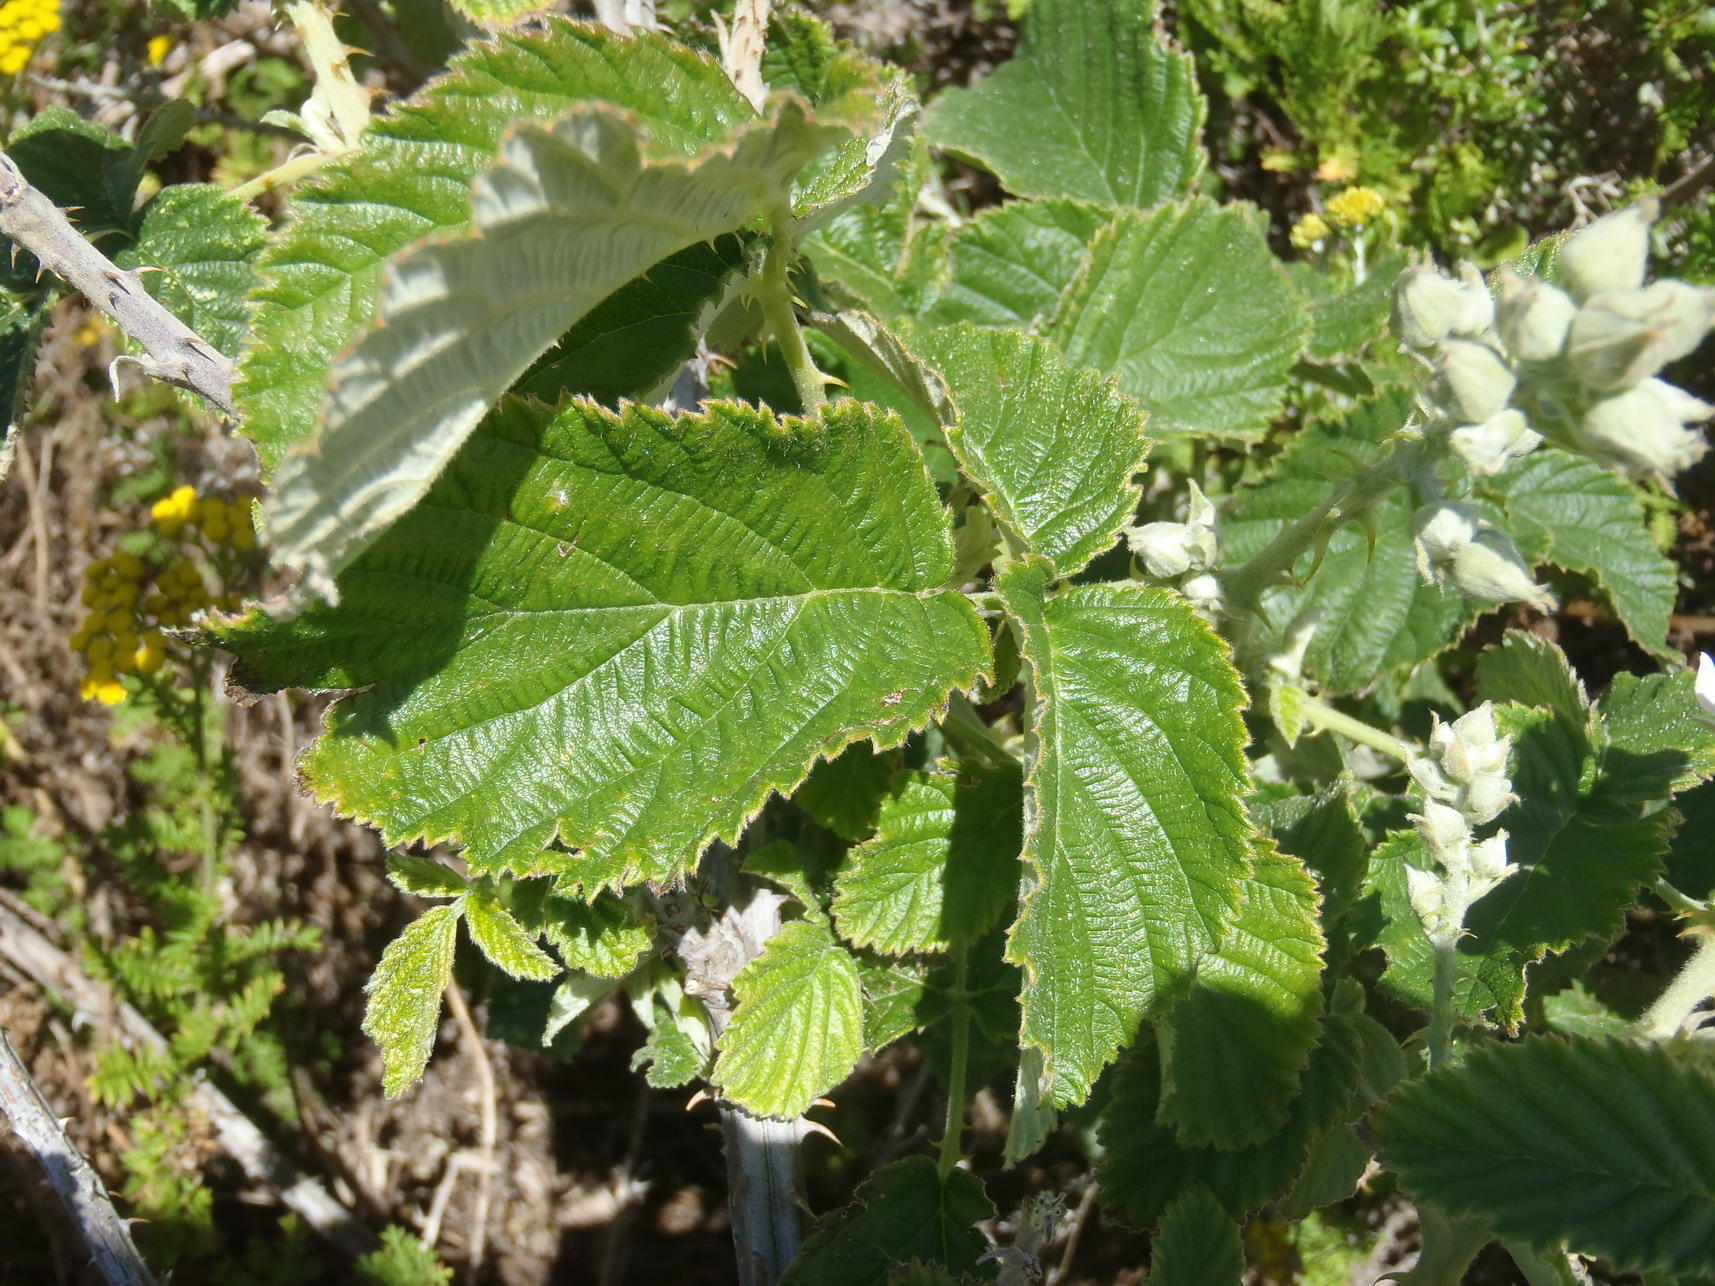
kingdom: Plantae
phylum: Tracheophyta
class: Magnoliopsida
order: Rosales
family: Rosaceae
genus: Rubus
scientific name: Rubus rigidus
